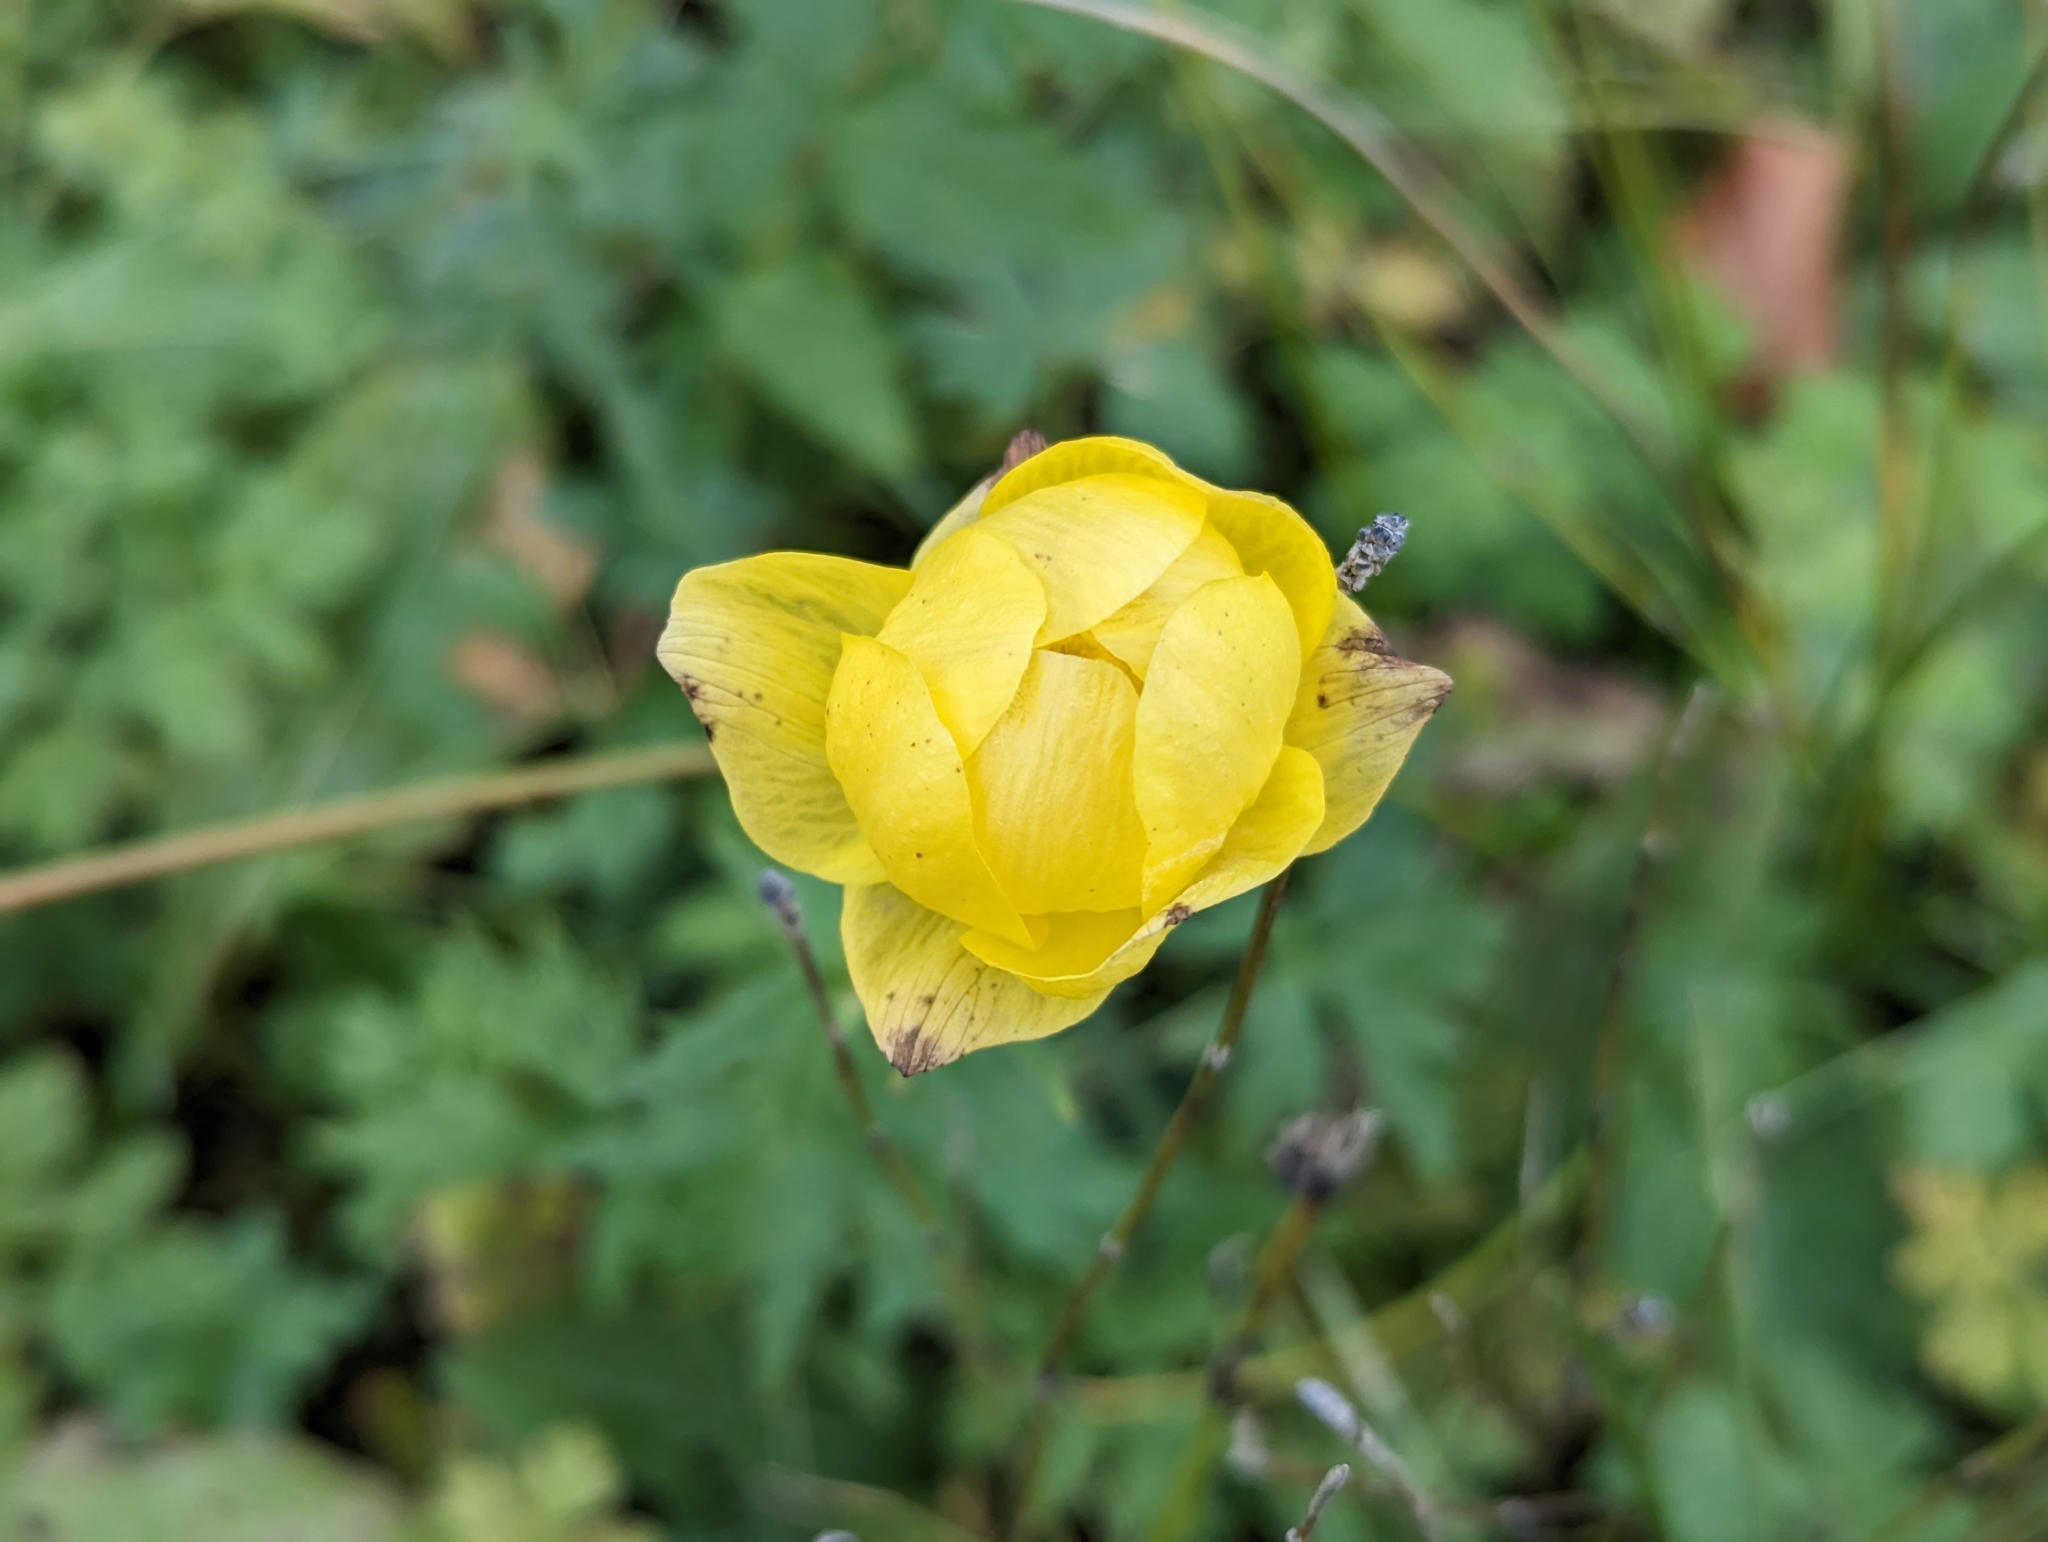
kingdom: Plantae
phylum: Tracheophyta
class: Magnoliopsida
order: Ranunculales
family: Ranunculaceae
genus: Trollius
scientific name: Trollius europaeus
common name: European globeflower
